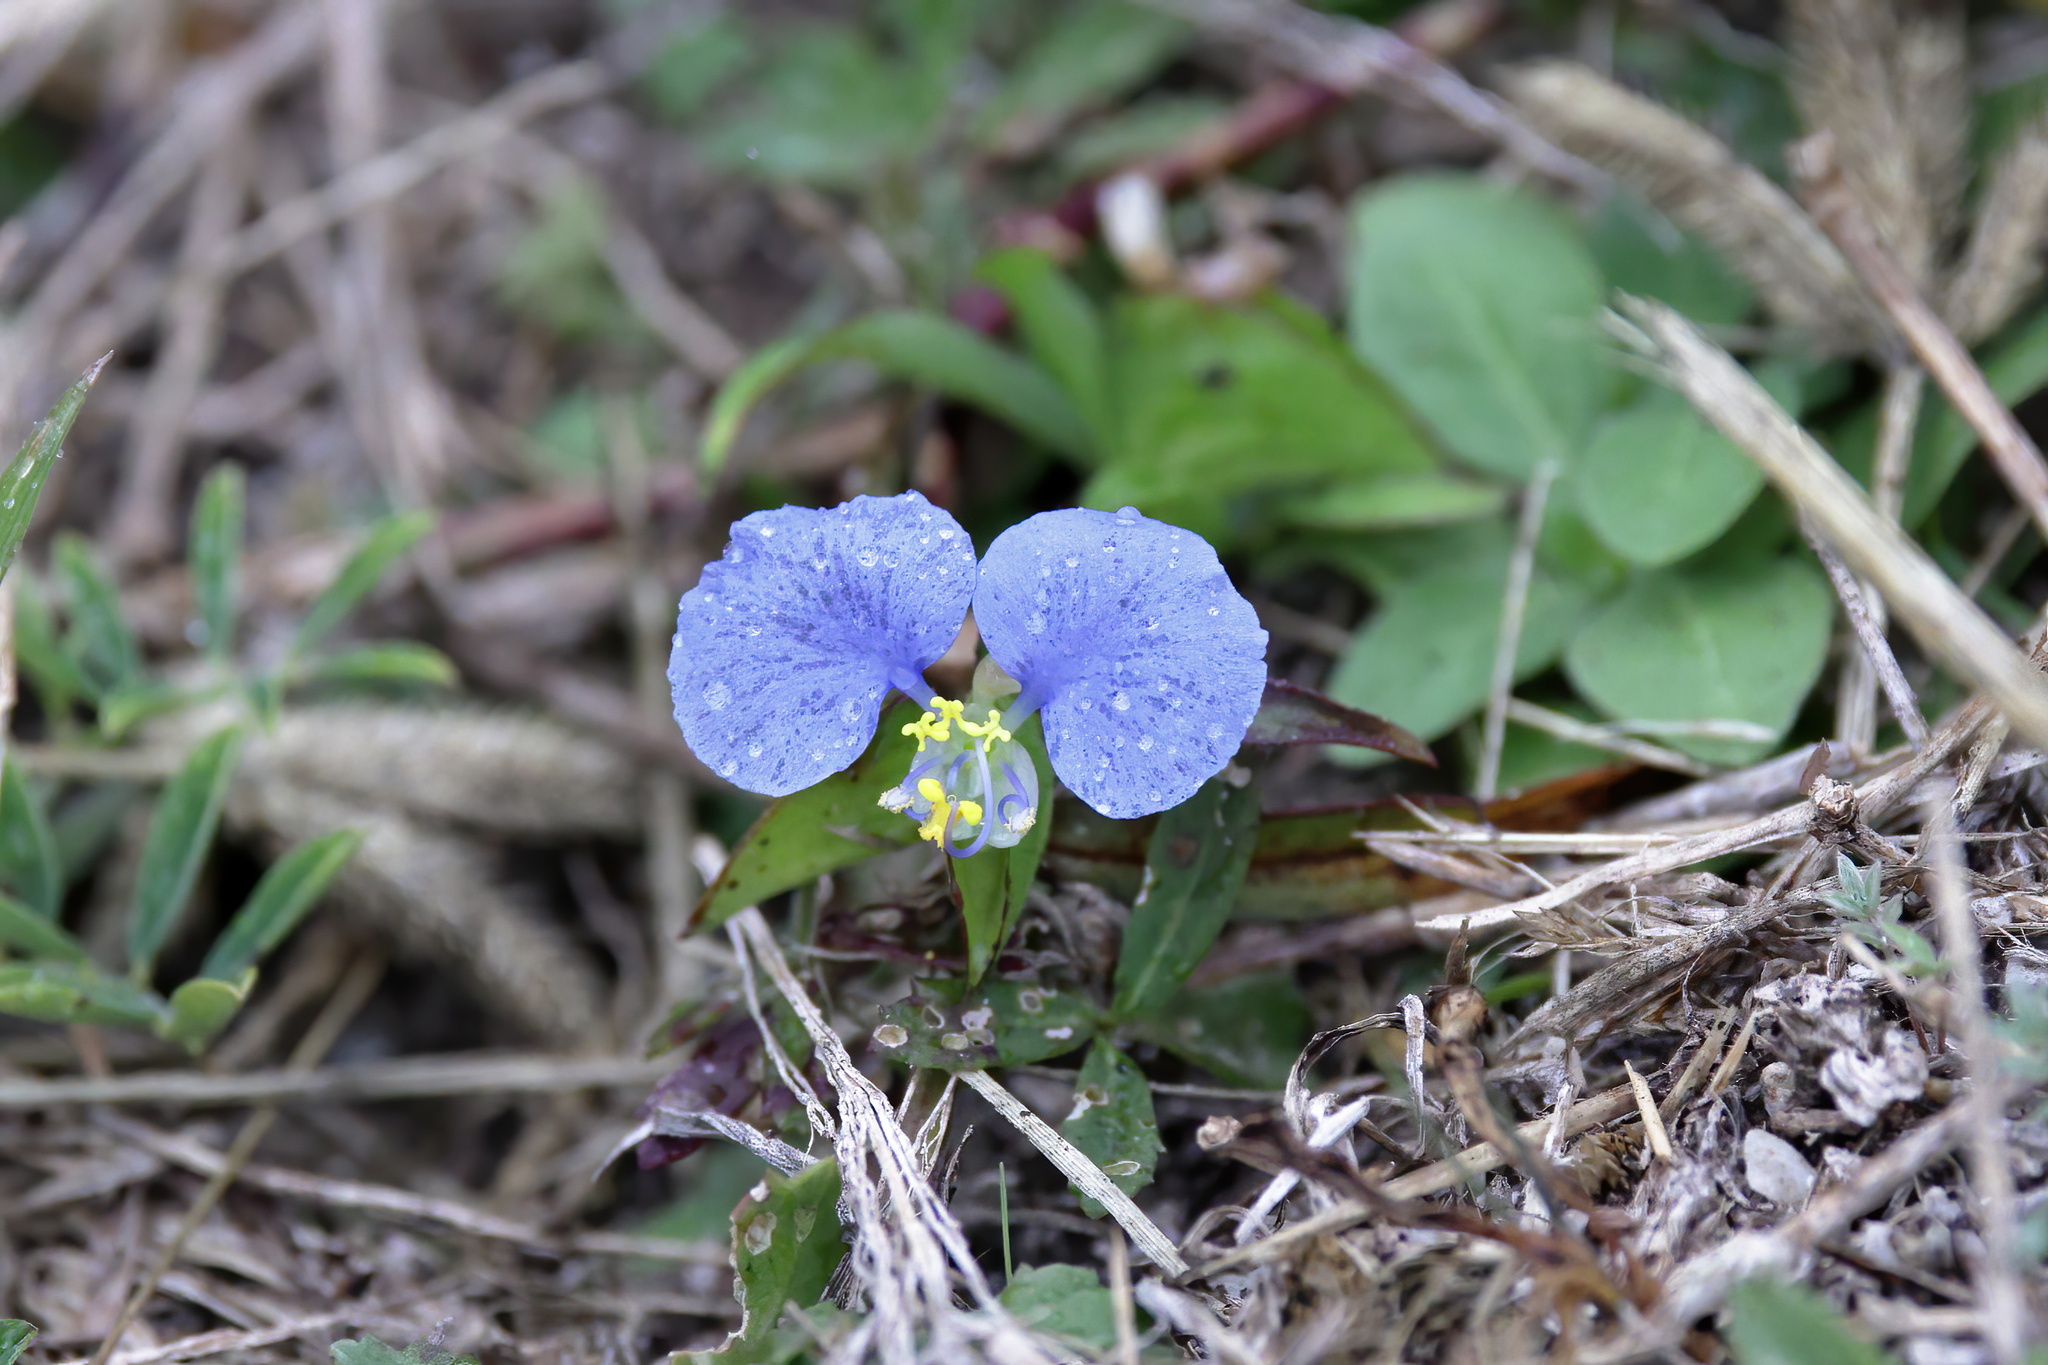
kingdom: Plantae
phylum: Tracheophyta
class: Liliopsida
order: Commelinales
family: Commelinaceae
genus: Commelina
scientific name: Commelina erecta
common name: Blousel blommetjie
